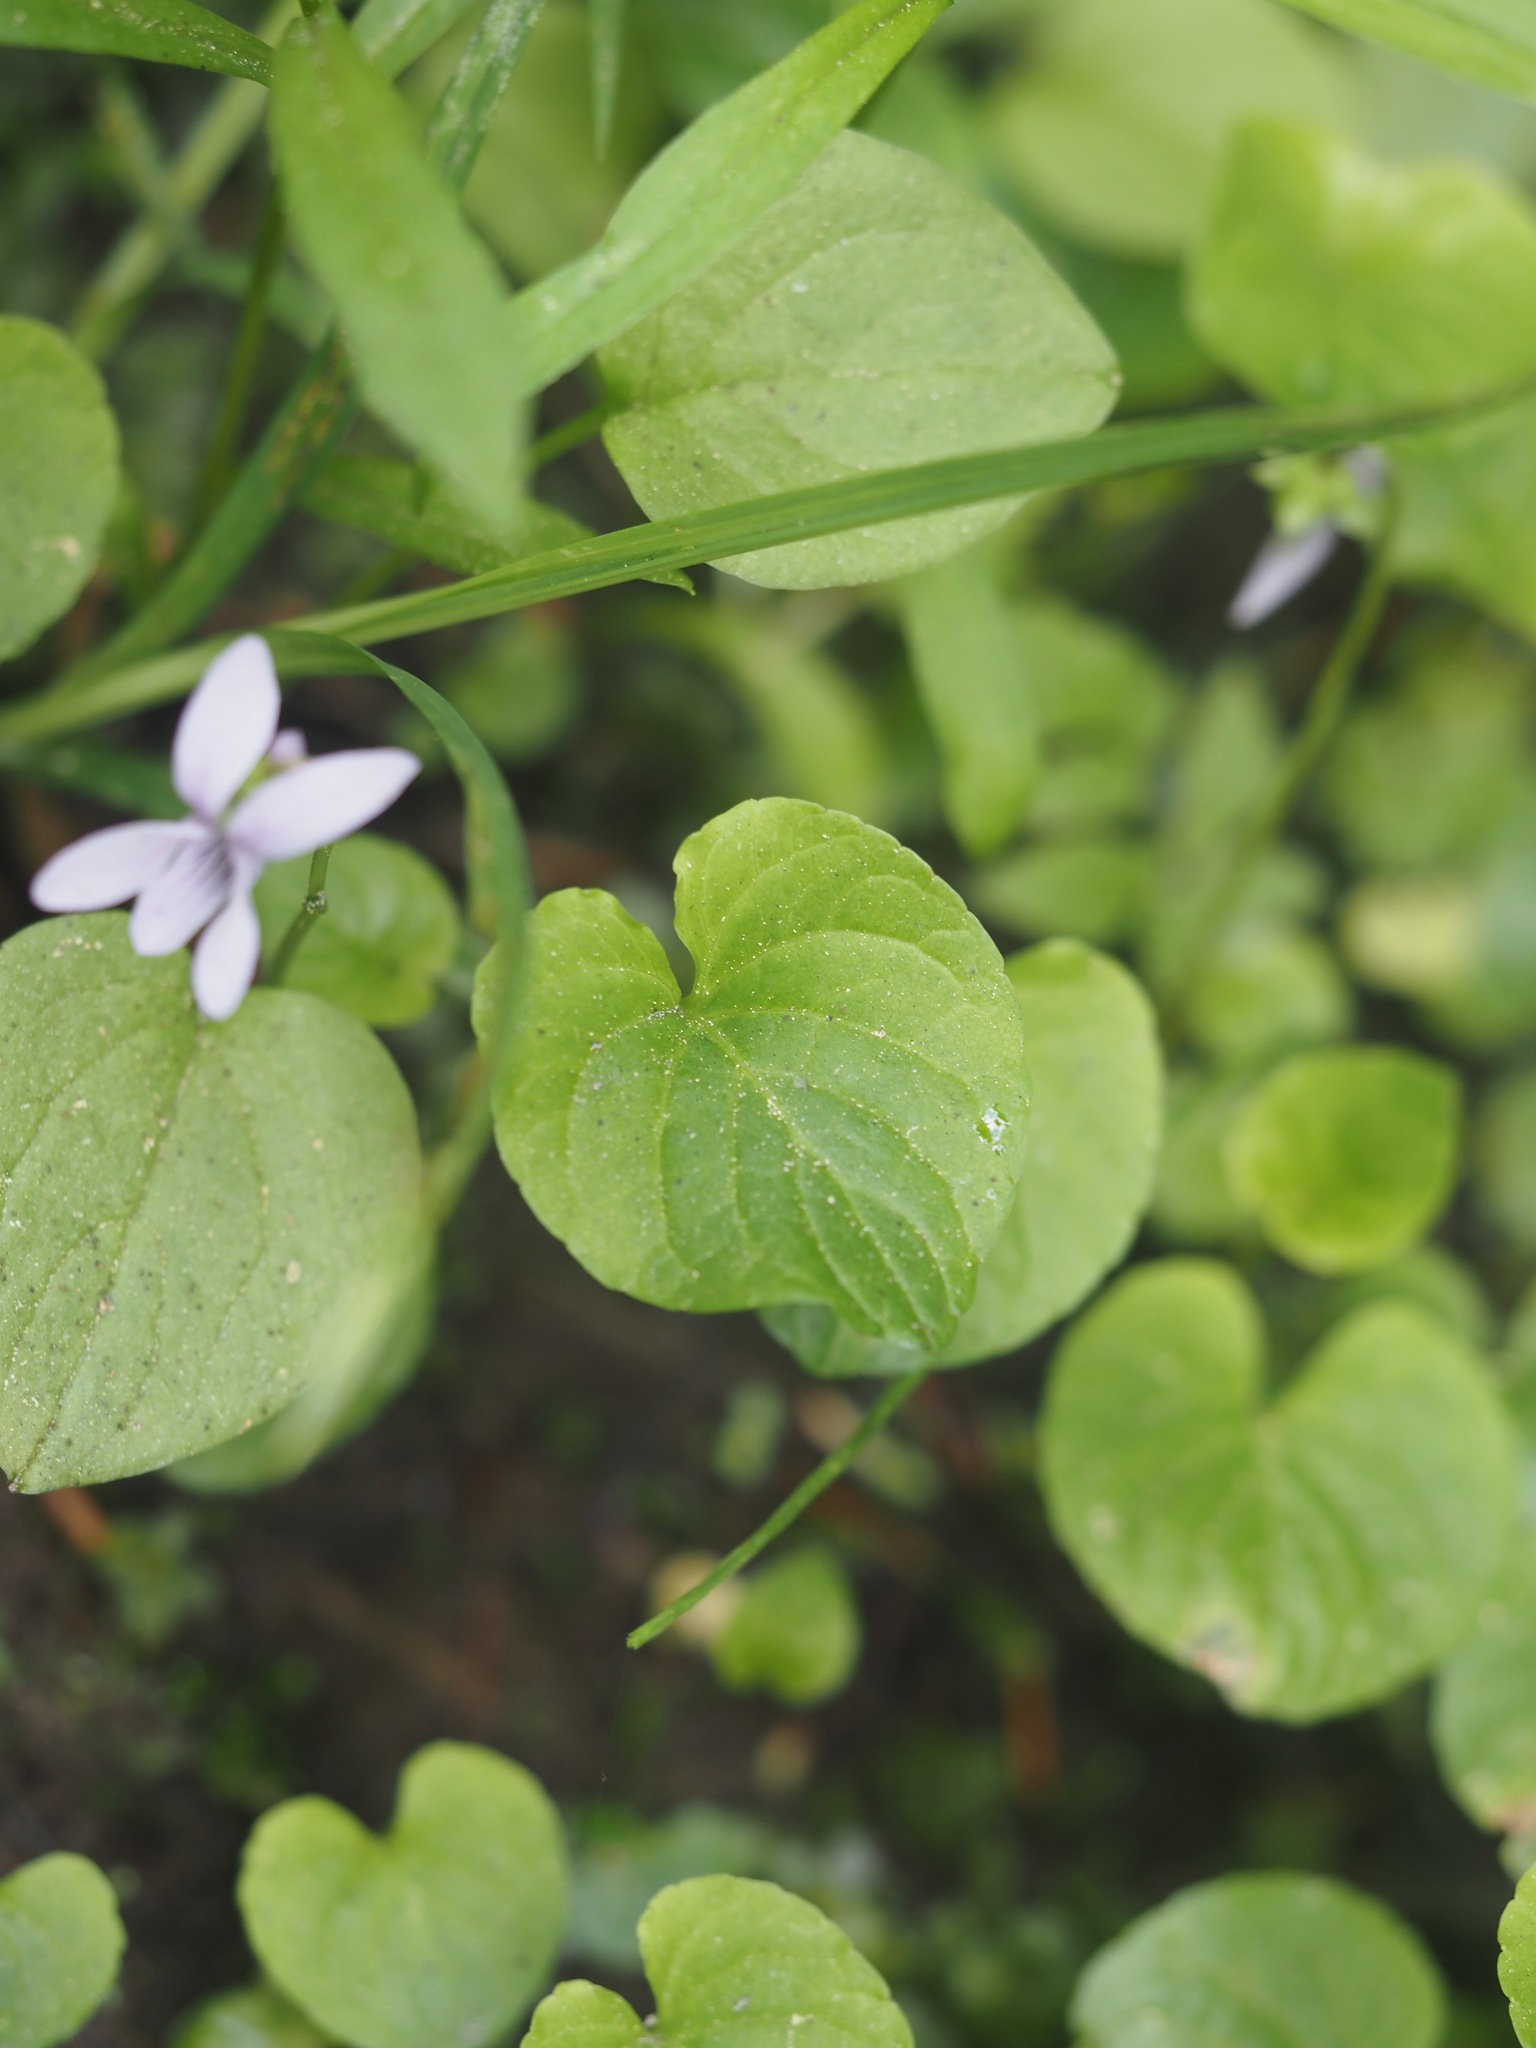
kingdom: Plantae
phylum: Tracheophyta
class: Magnoliopsida
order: Malpighiales
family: Violaceae
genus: Viola
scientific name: Viola palustris
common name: Marsh violet
